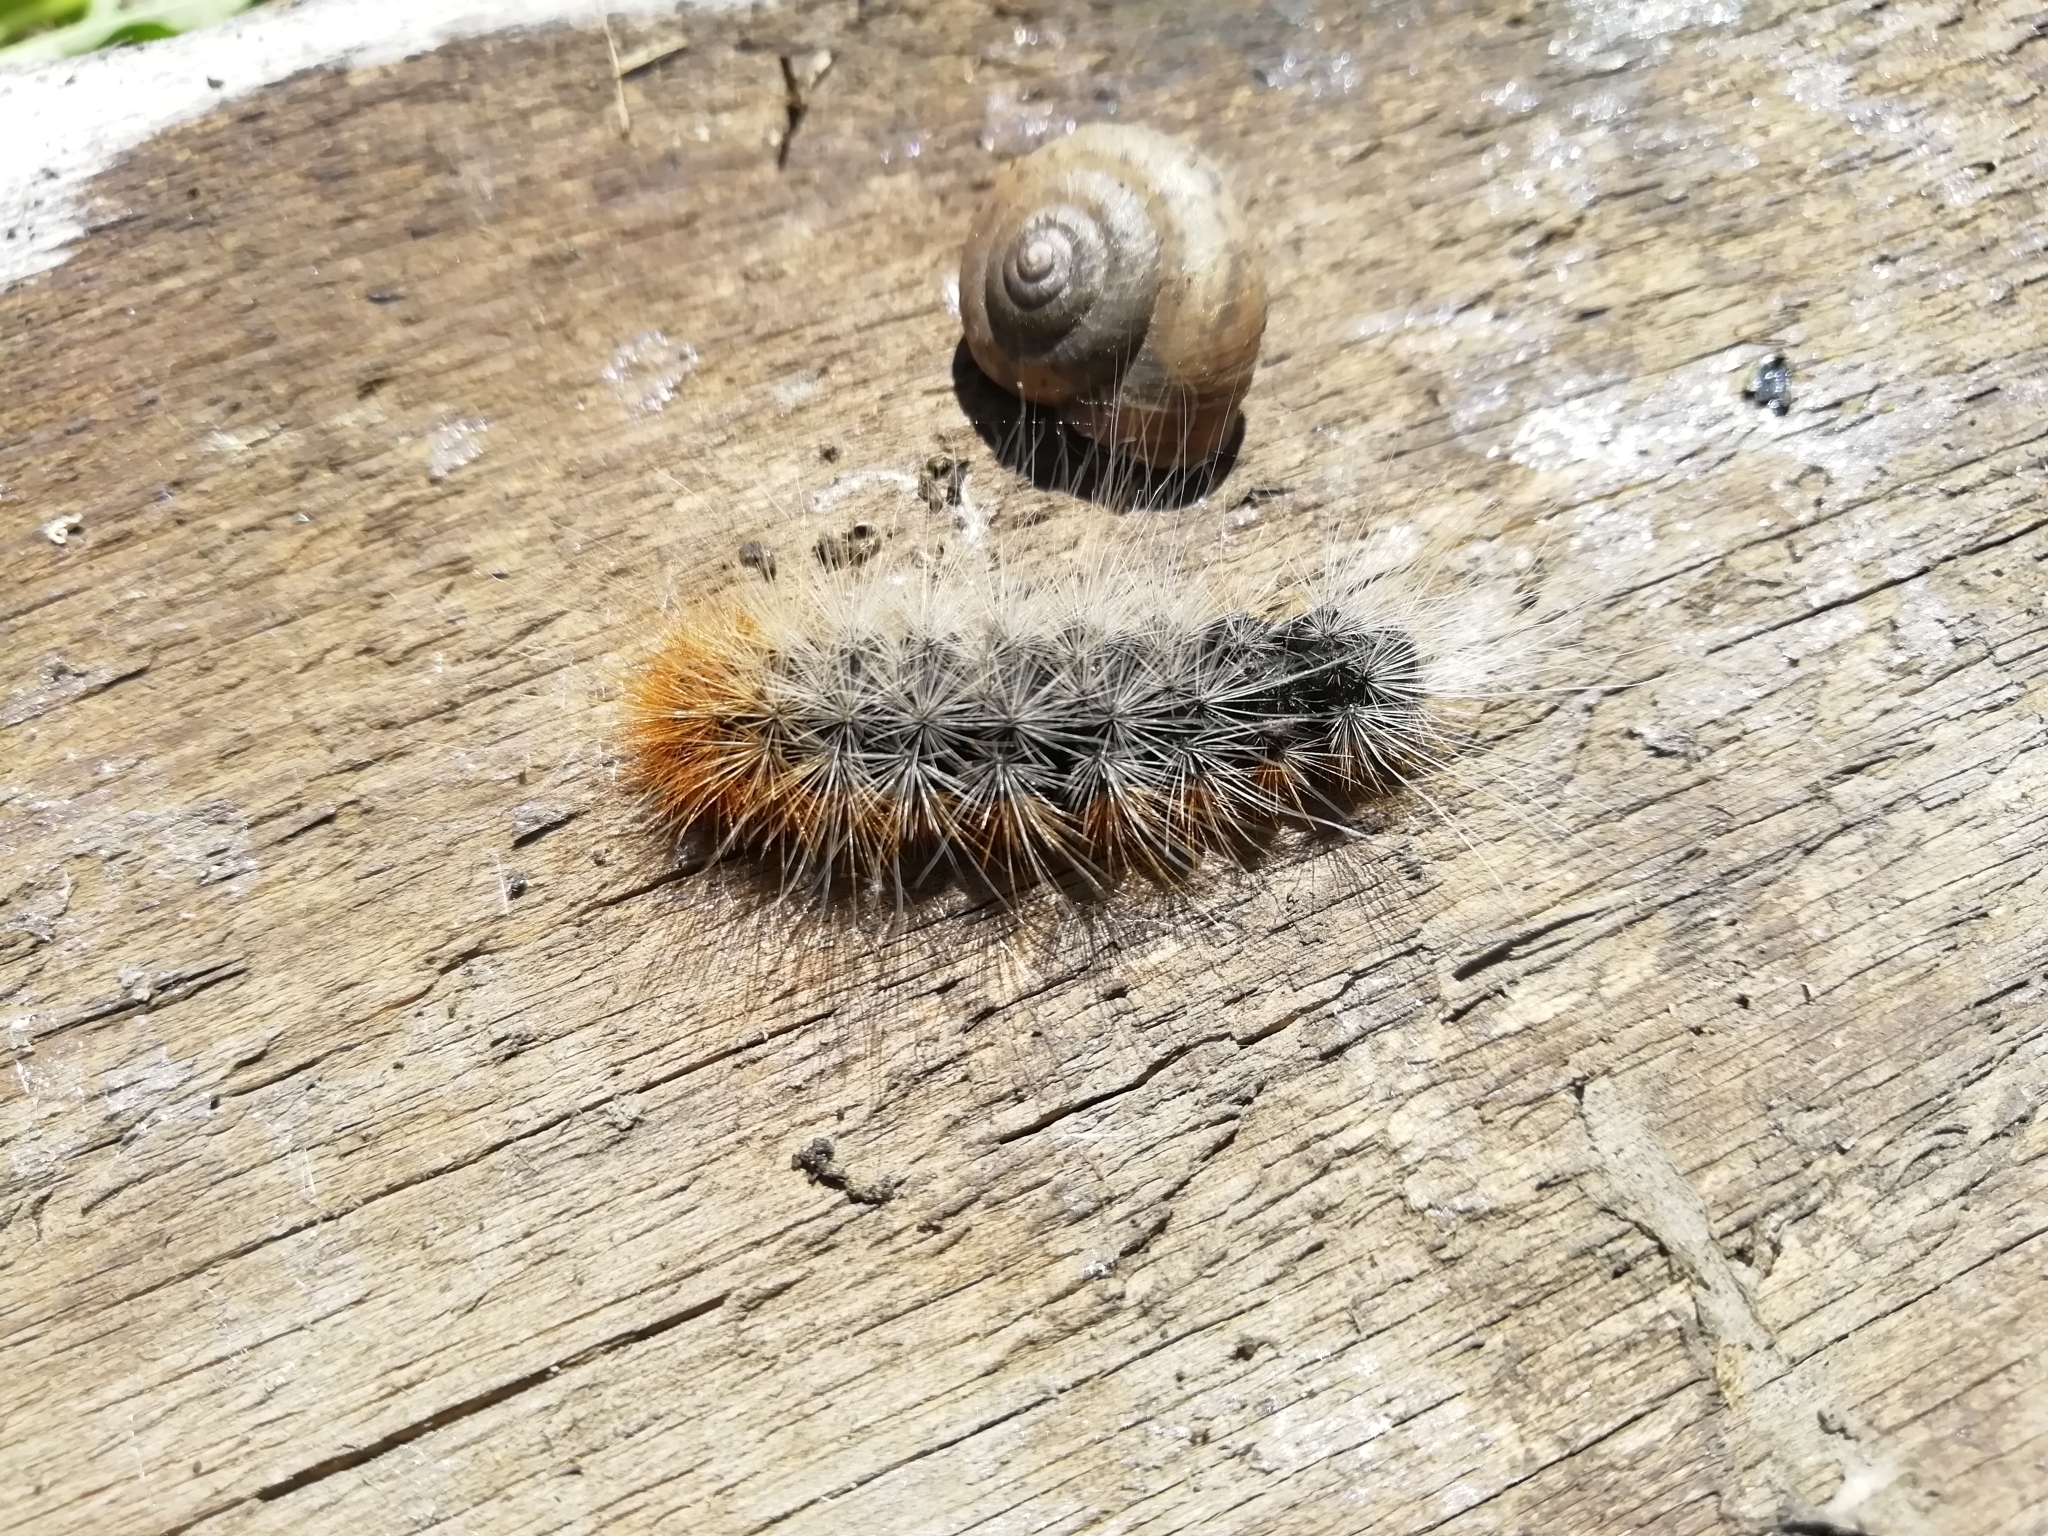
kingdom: Animalia
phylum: Arthropoda
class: Insecta
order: Lepidoptera
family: Erebidae
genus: Arctia
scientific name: Arctia caja
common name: Garden tiger
